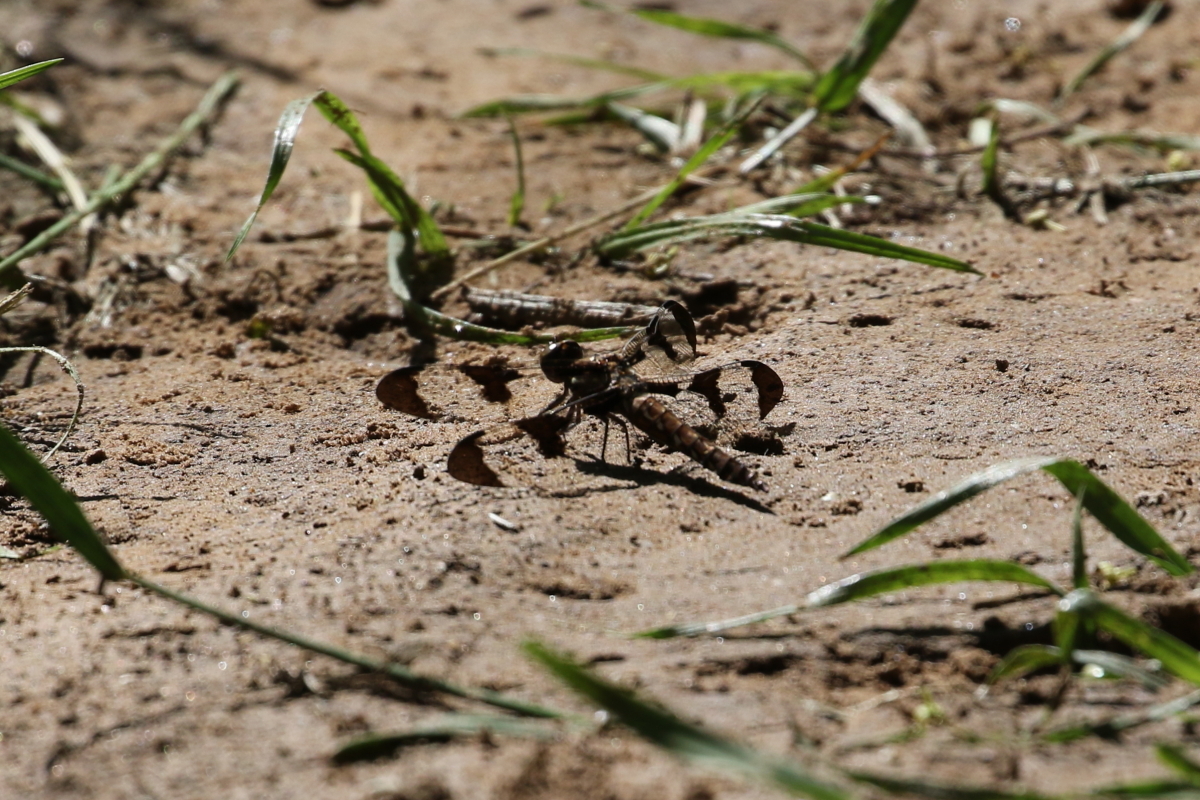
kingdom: Animalia
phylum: Arthropoda
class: Insecta
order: Odonata
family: Libellulidae
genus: Plathemis
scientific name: Plathemis lydia
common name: Common whitetail
